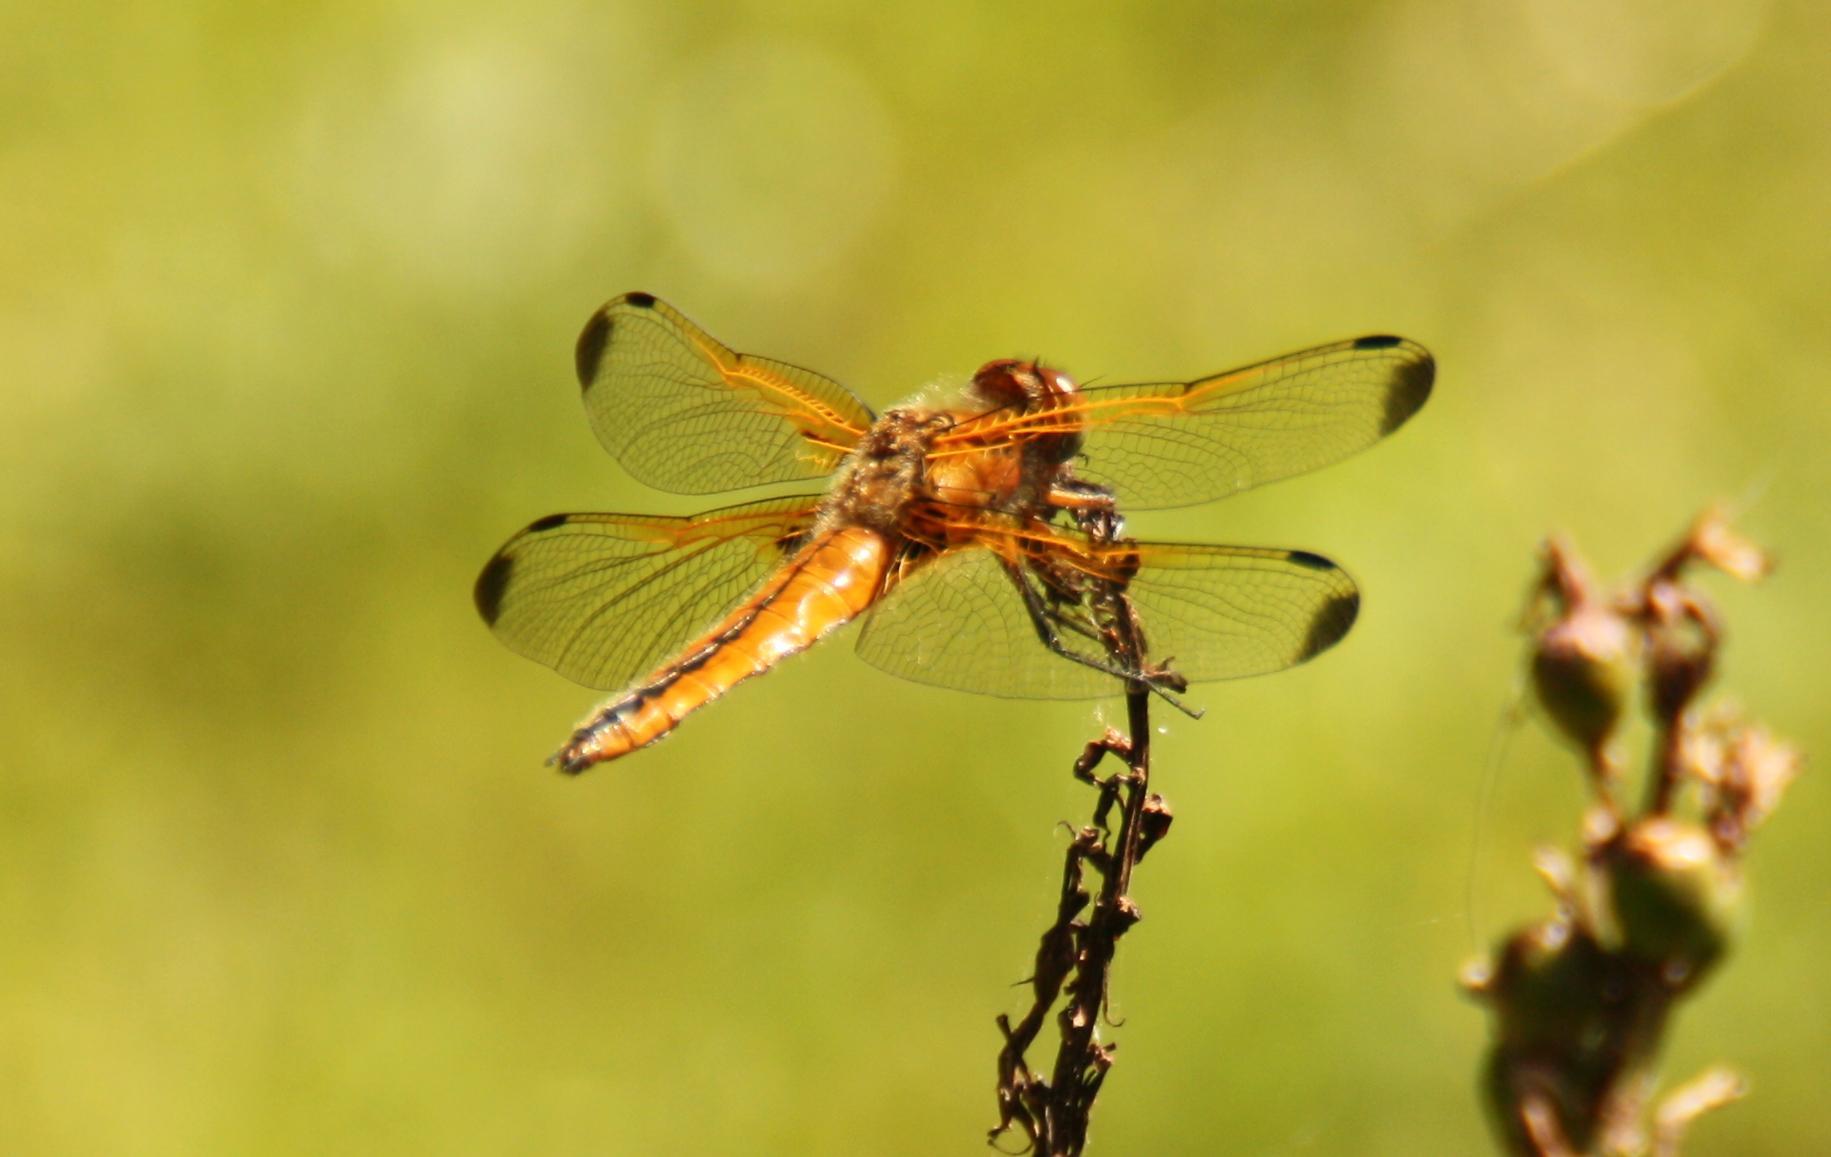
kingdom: Animalia
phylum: Arthropoda
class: Insecta
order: Odonata
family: Libellulidae
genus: Libellula
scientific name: Libellula fulva
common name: Blue chaser
